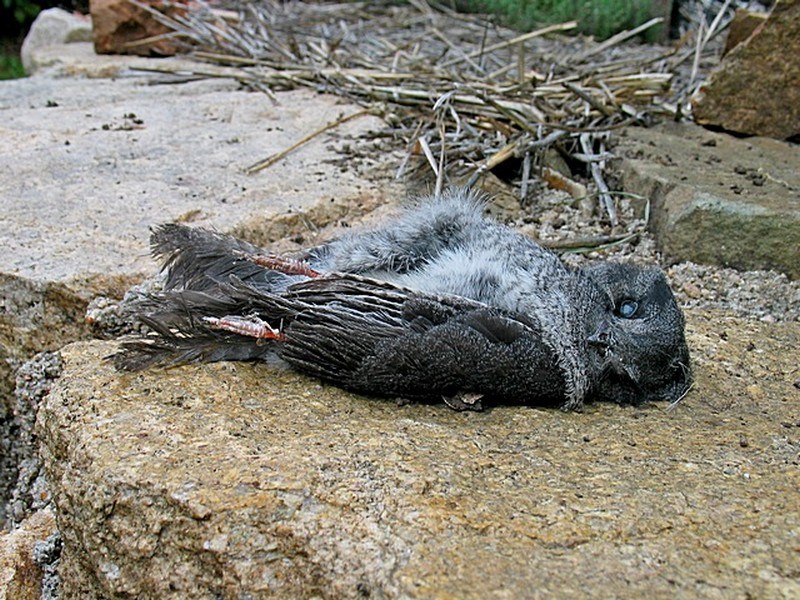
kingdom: Animalia
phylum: Chordata
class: Aves
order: Apodiformes
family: Aegothelidae
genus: Aegotheles
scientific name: Aegotheles cristatus
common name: Australian owlet-nightjar
